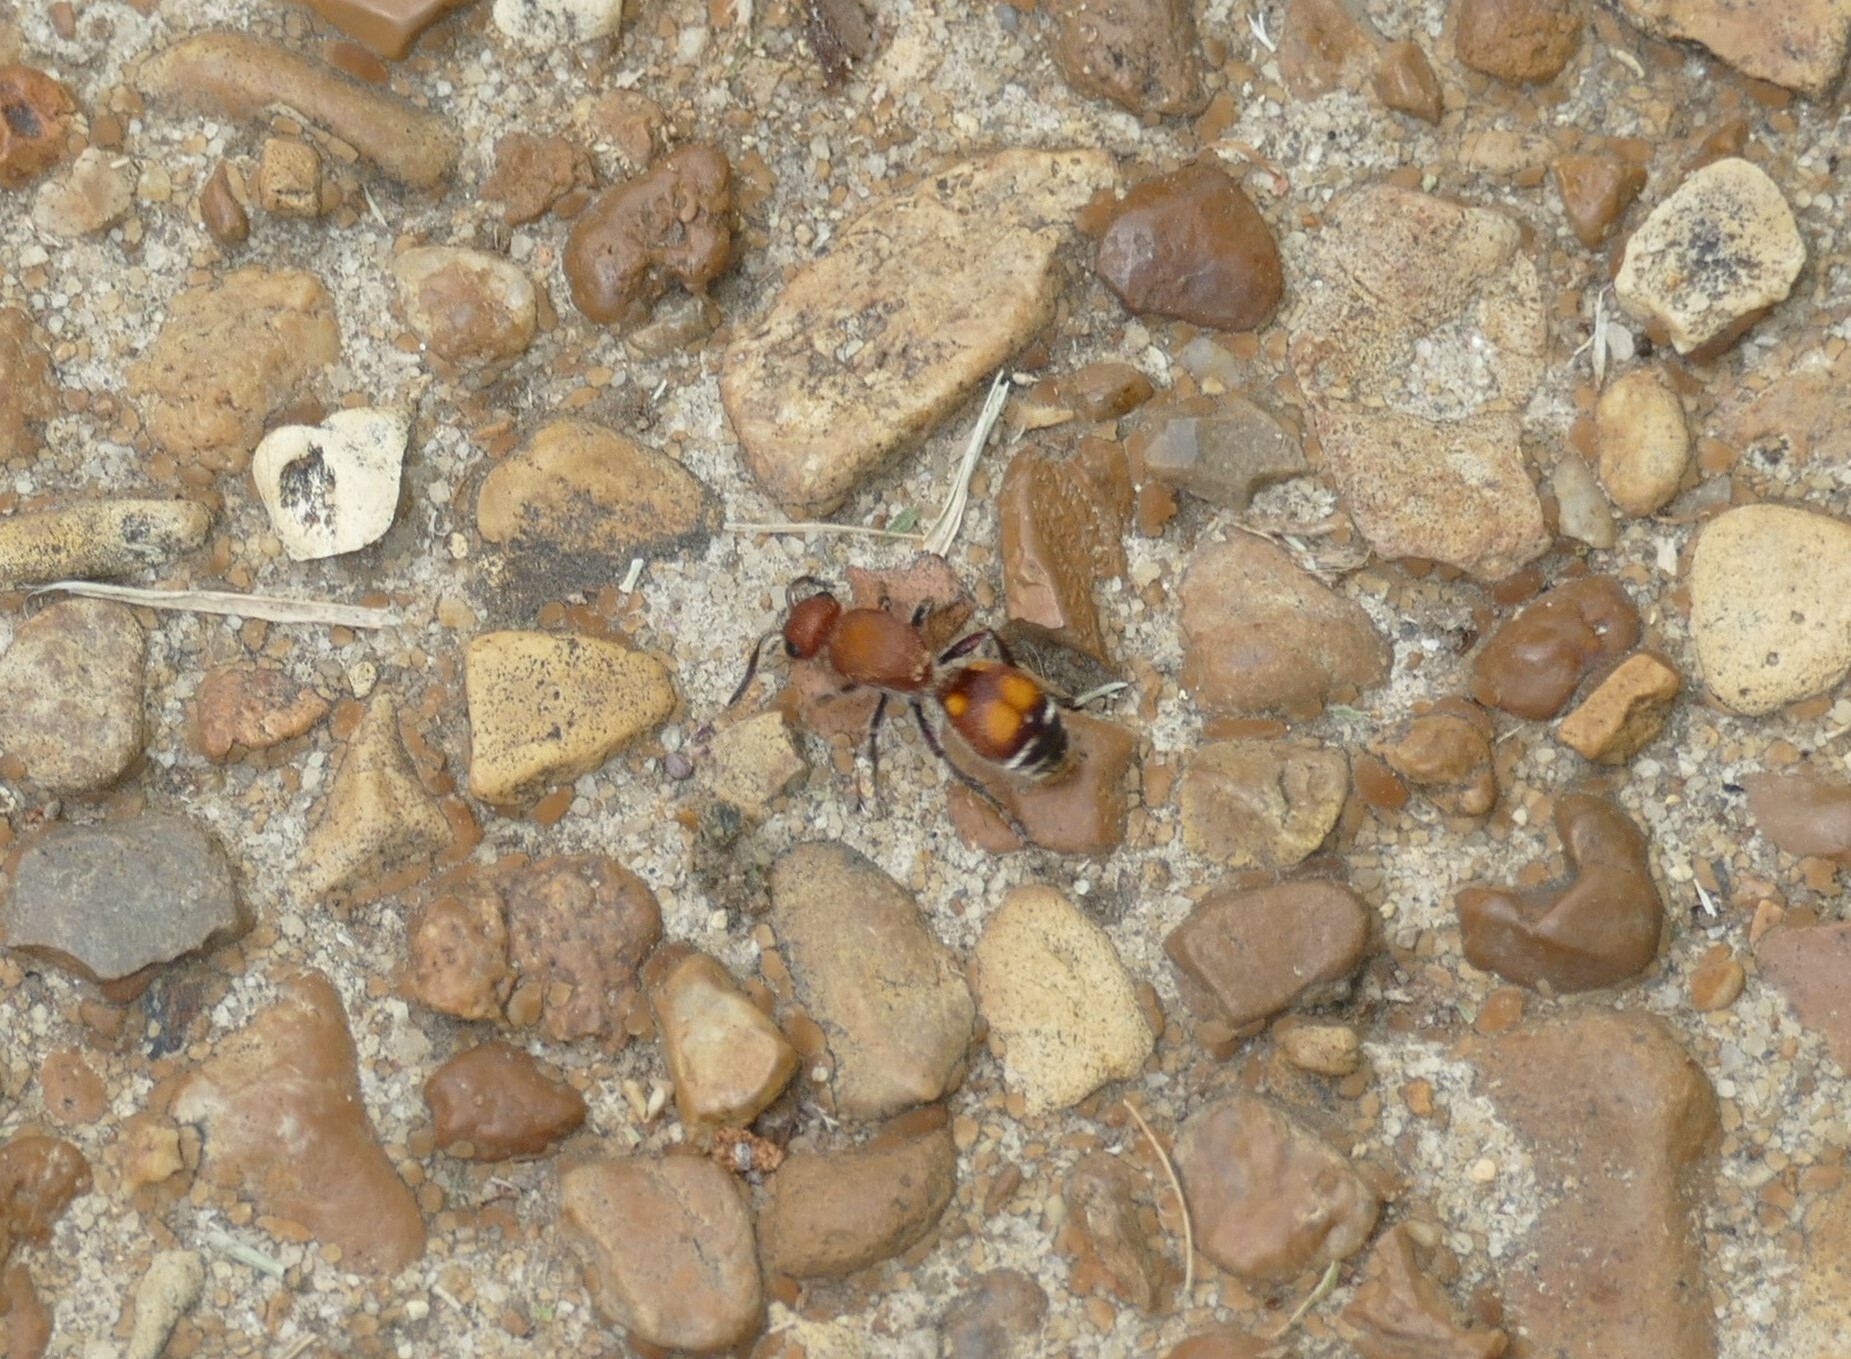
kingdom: Animalia
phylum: Arthropoda
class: Insecta
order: Hymenoptera
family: Mutillidae
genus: Dasymutilla
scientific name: Dasymutilla
